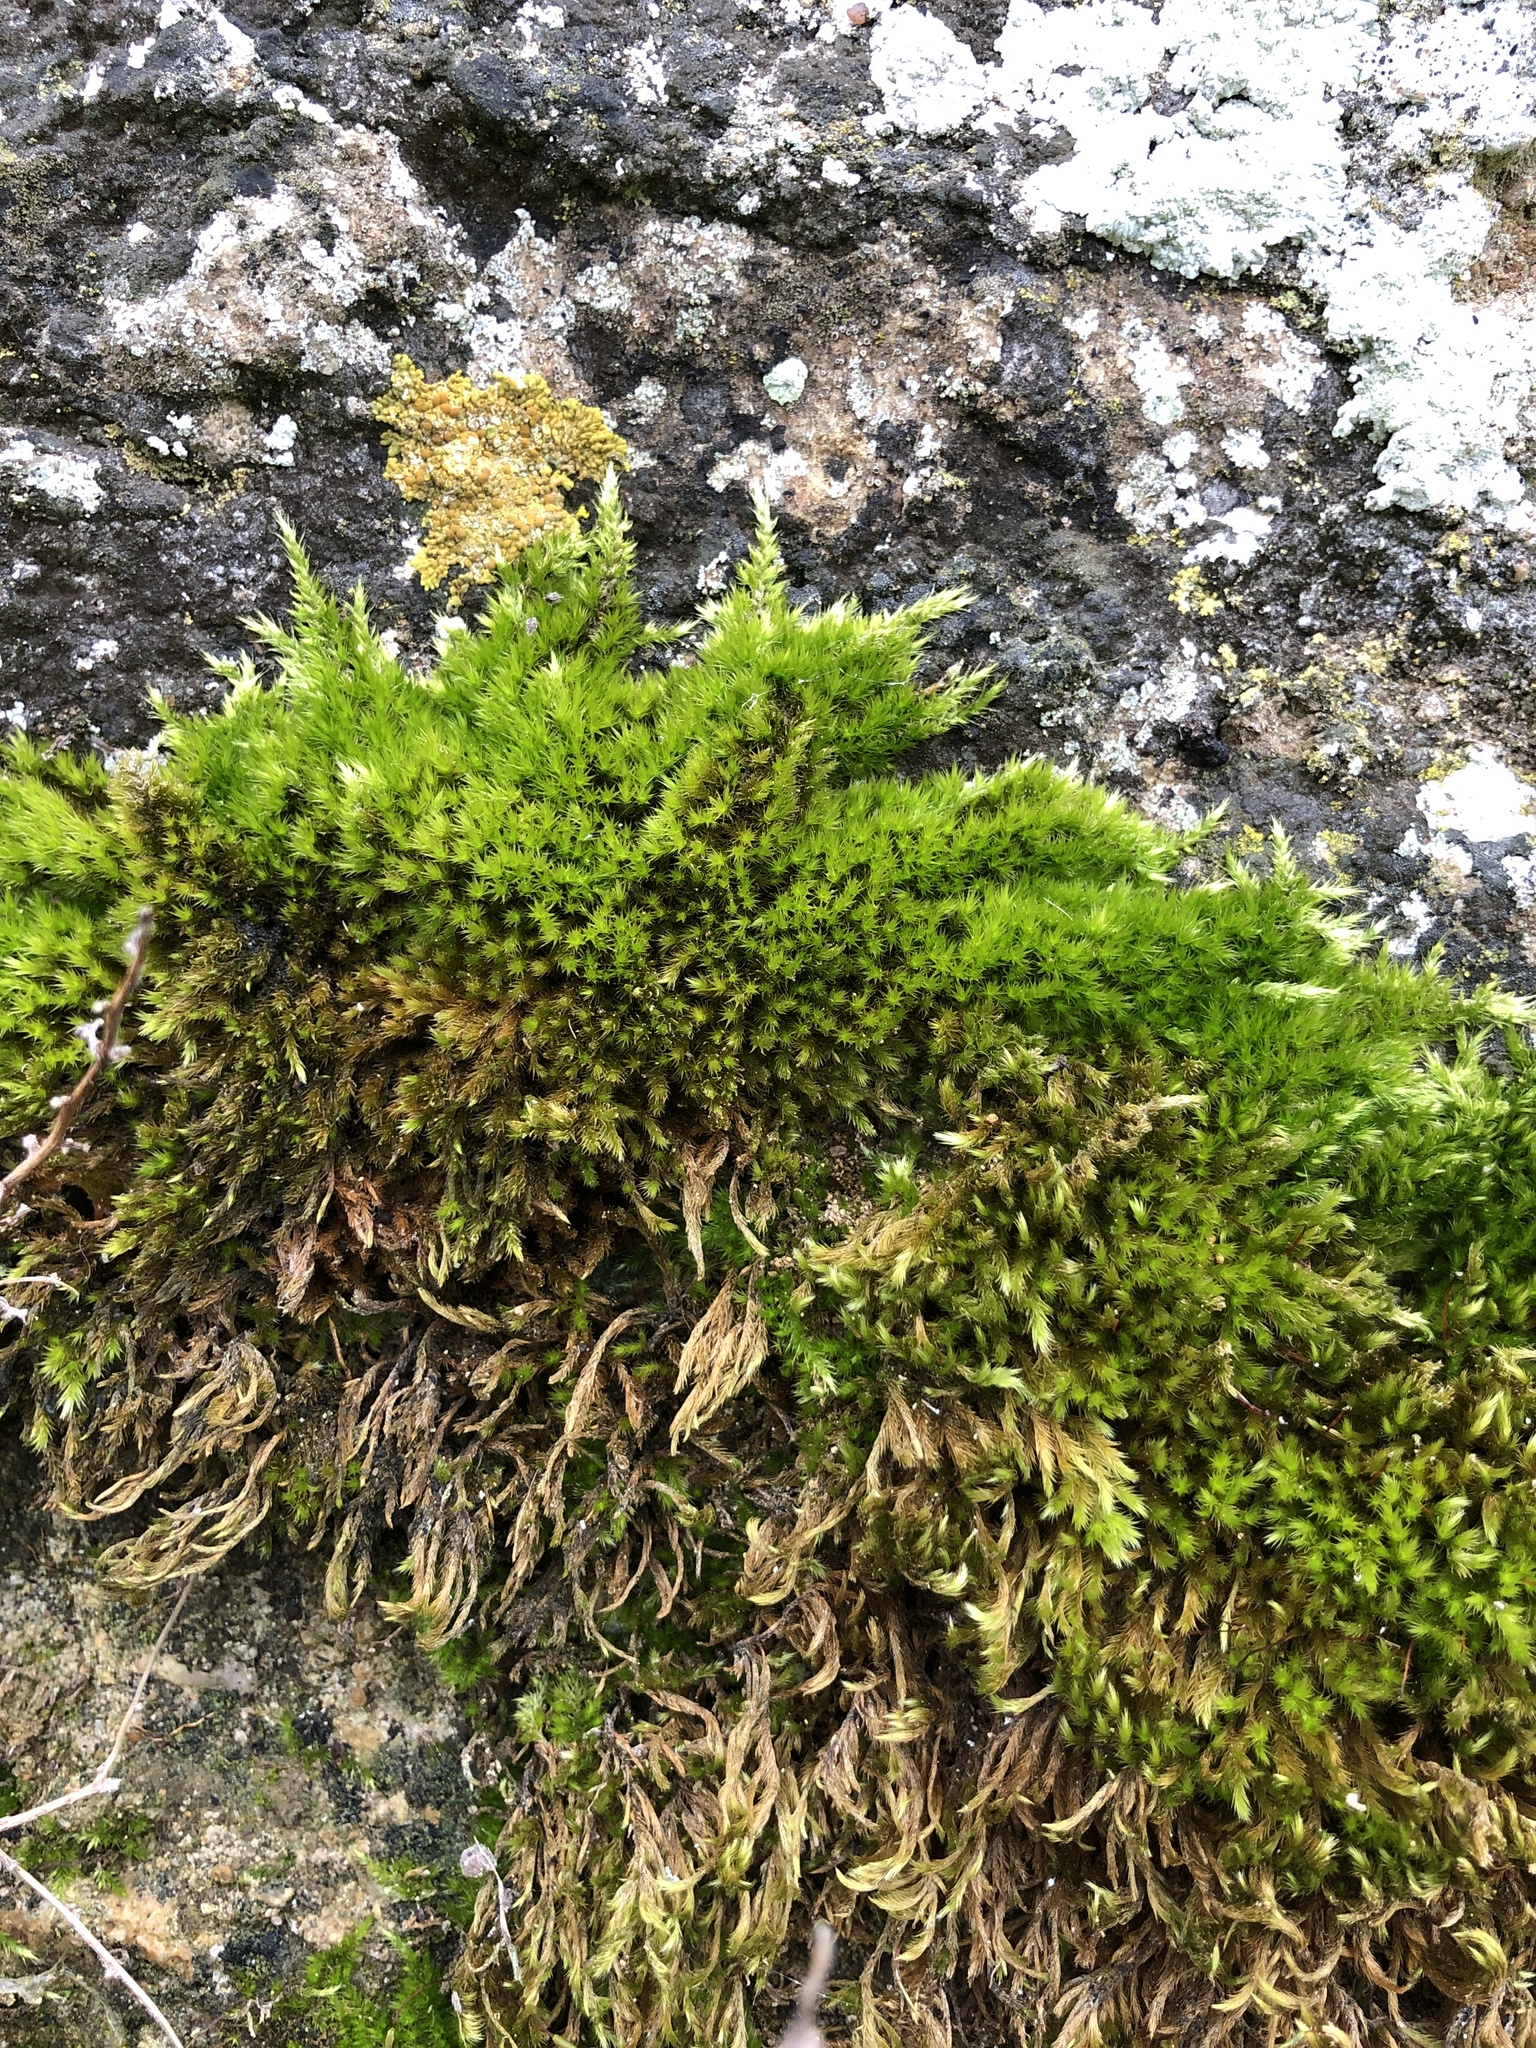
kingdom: Plantae
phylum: Bryophyta
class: Bryopsida
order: Hypnales
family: Brachytheciaceae
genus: Homalothecium
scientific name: Homalothecium sericeum
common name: Silky wall feather-moss
